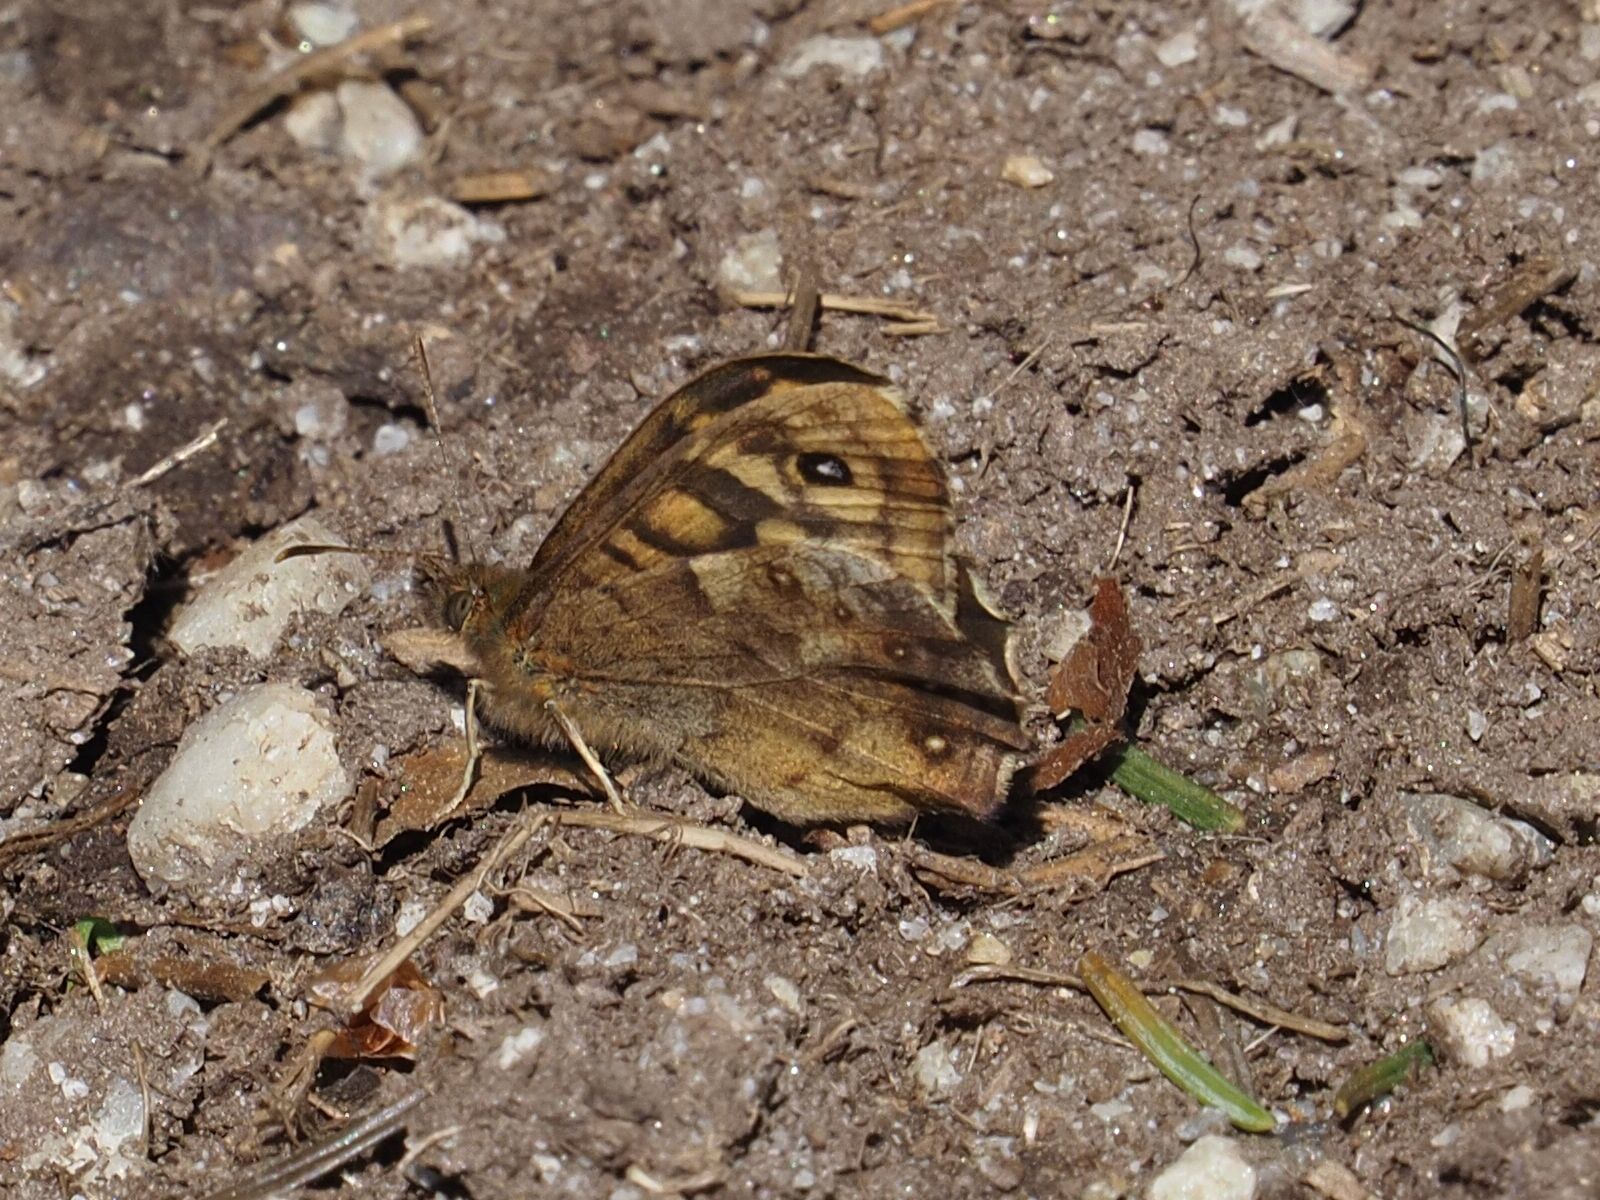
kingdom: Animalia
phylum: Arthropoda
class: Insecta
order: Lepidoptera
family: Nymphalidae
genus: Pararge
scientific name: Pararge aegeria
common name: Speckled wood
